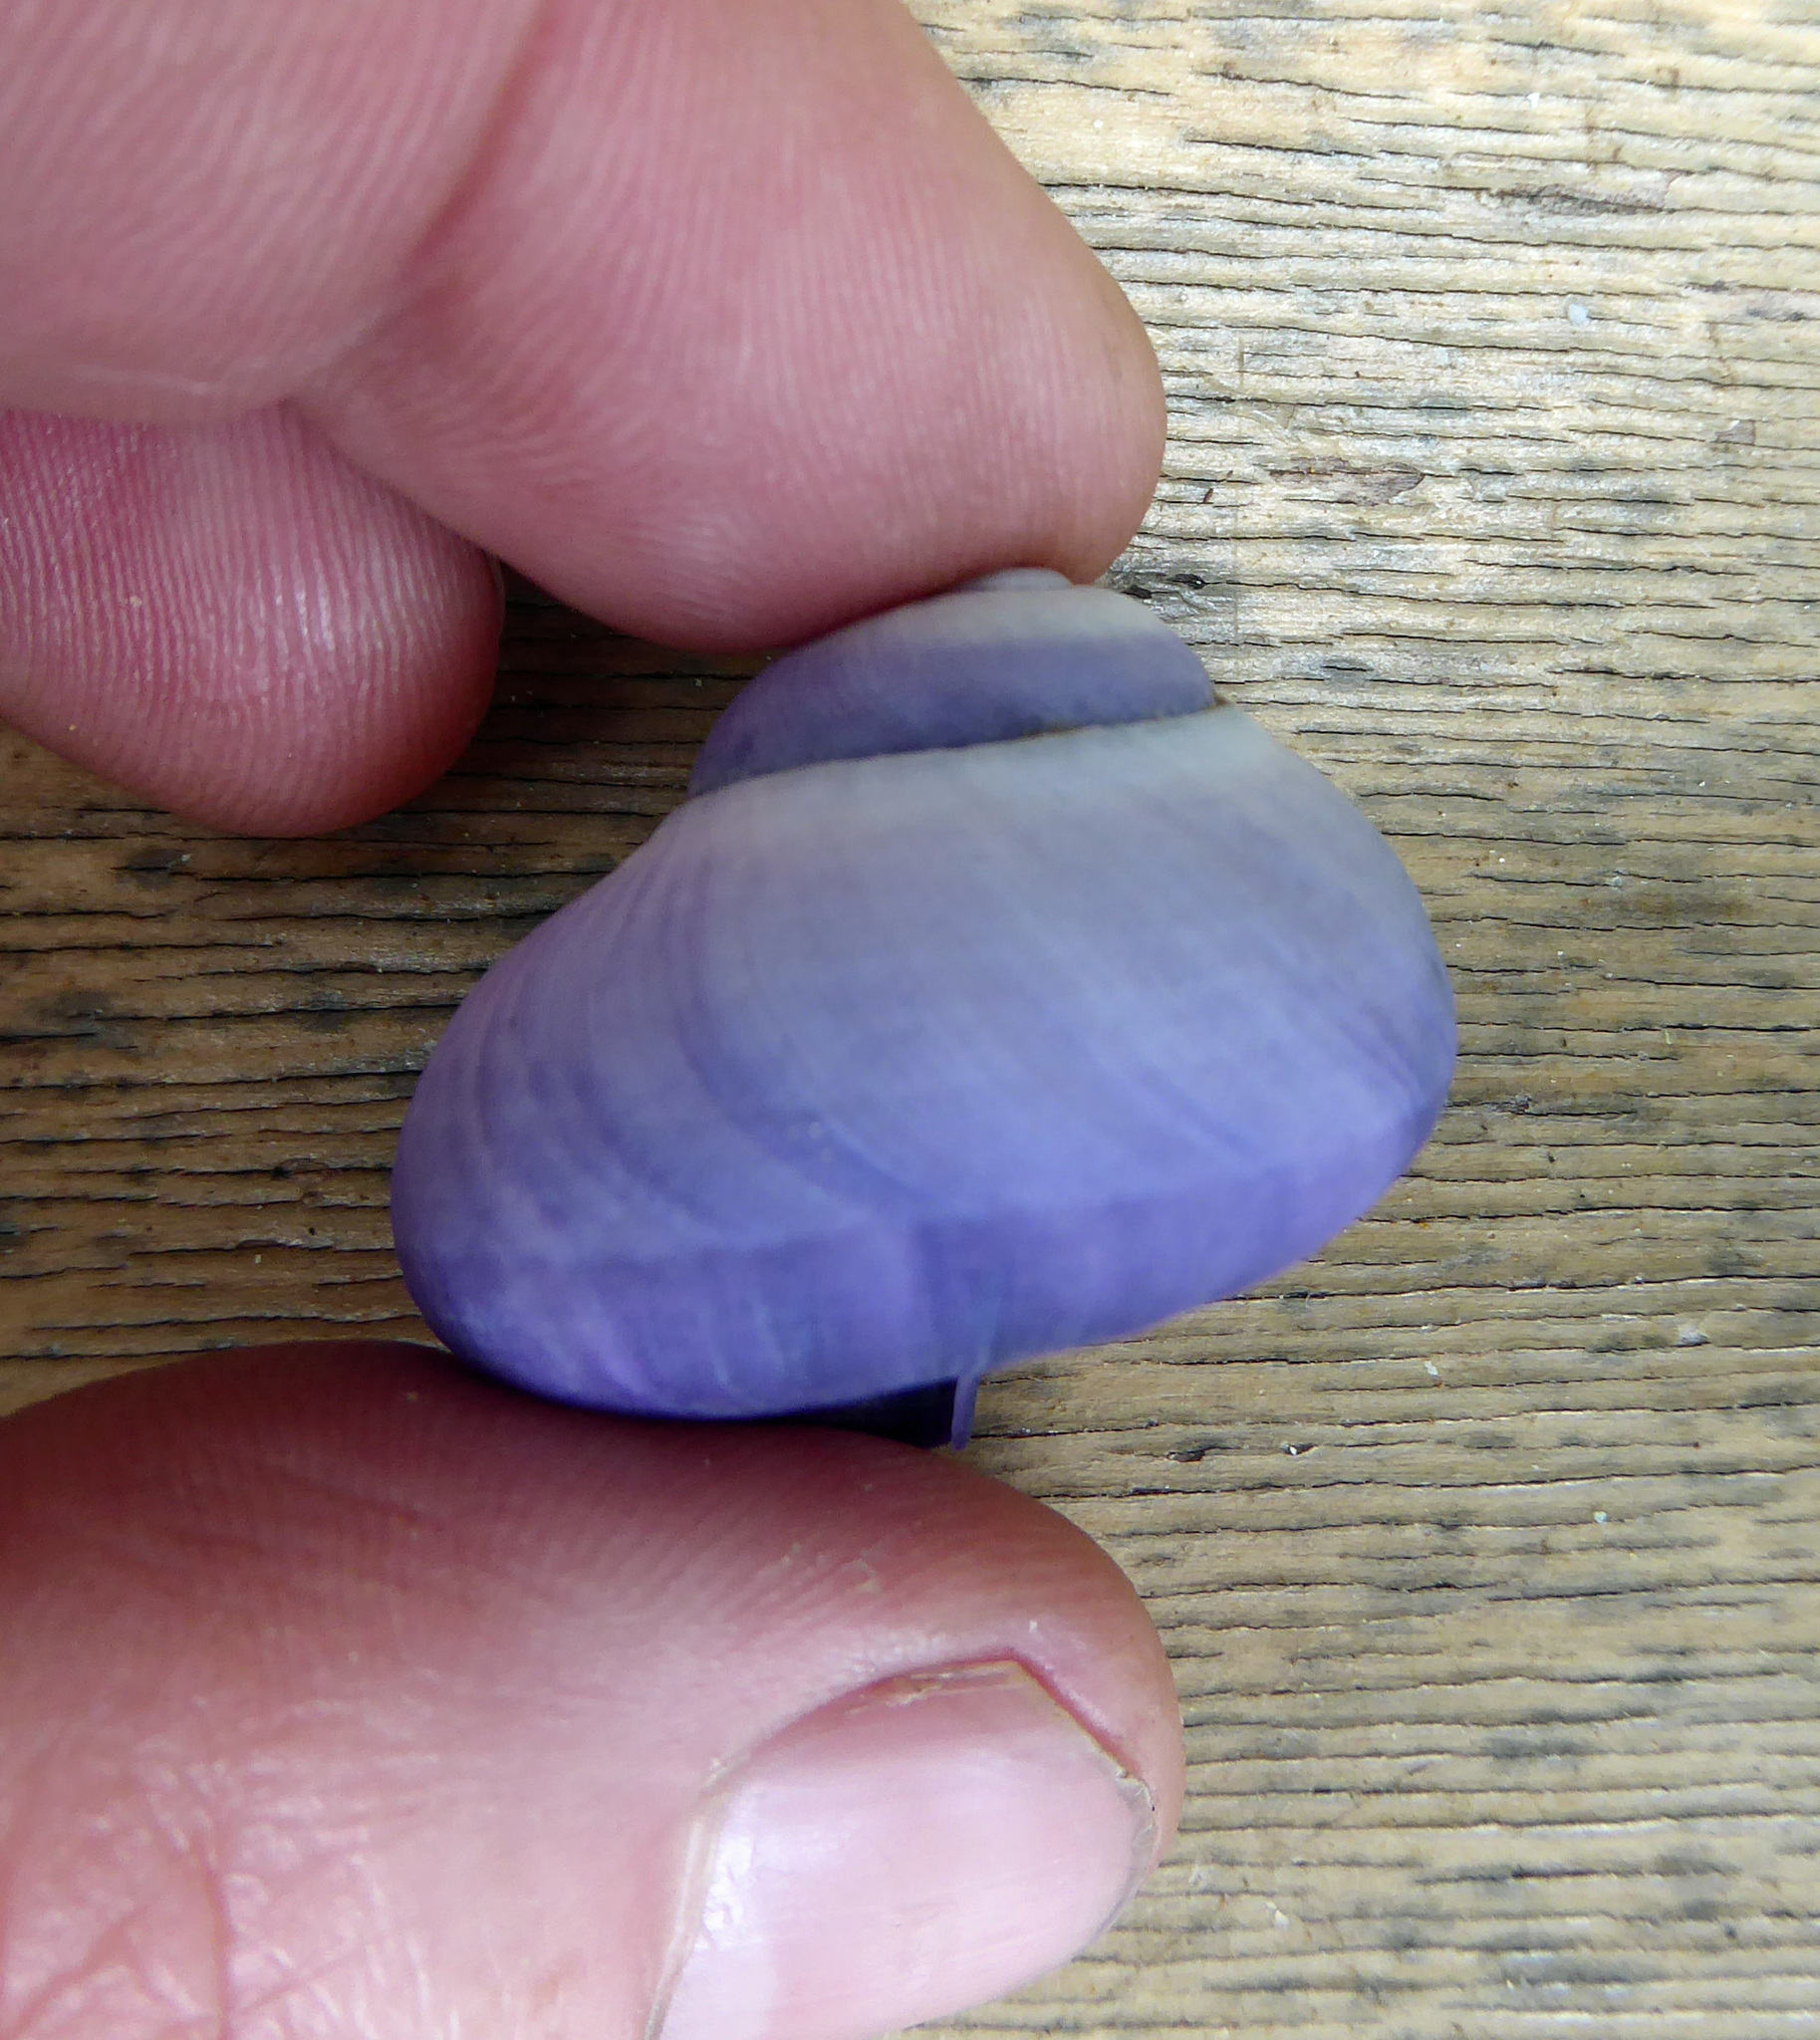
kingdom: Animalia
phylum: Mollusca
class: Gastropoda
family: Epitoniidae
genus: Janthina
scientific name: Janthina janthina
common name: Common janthina
